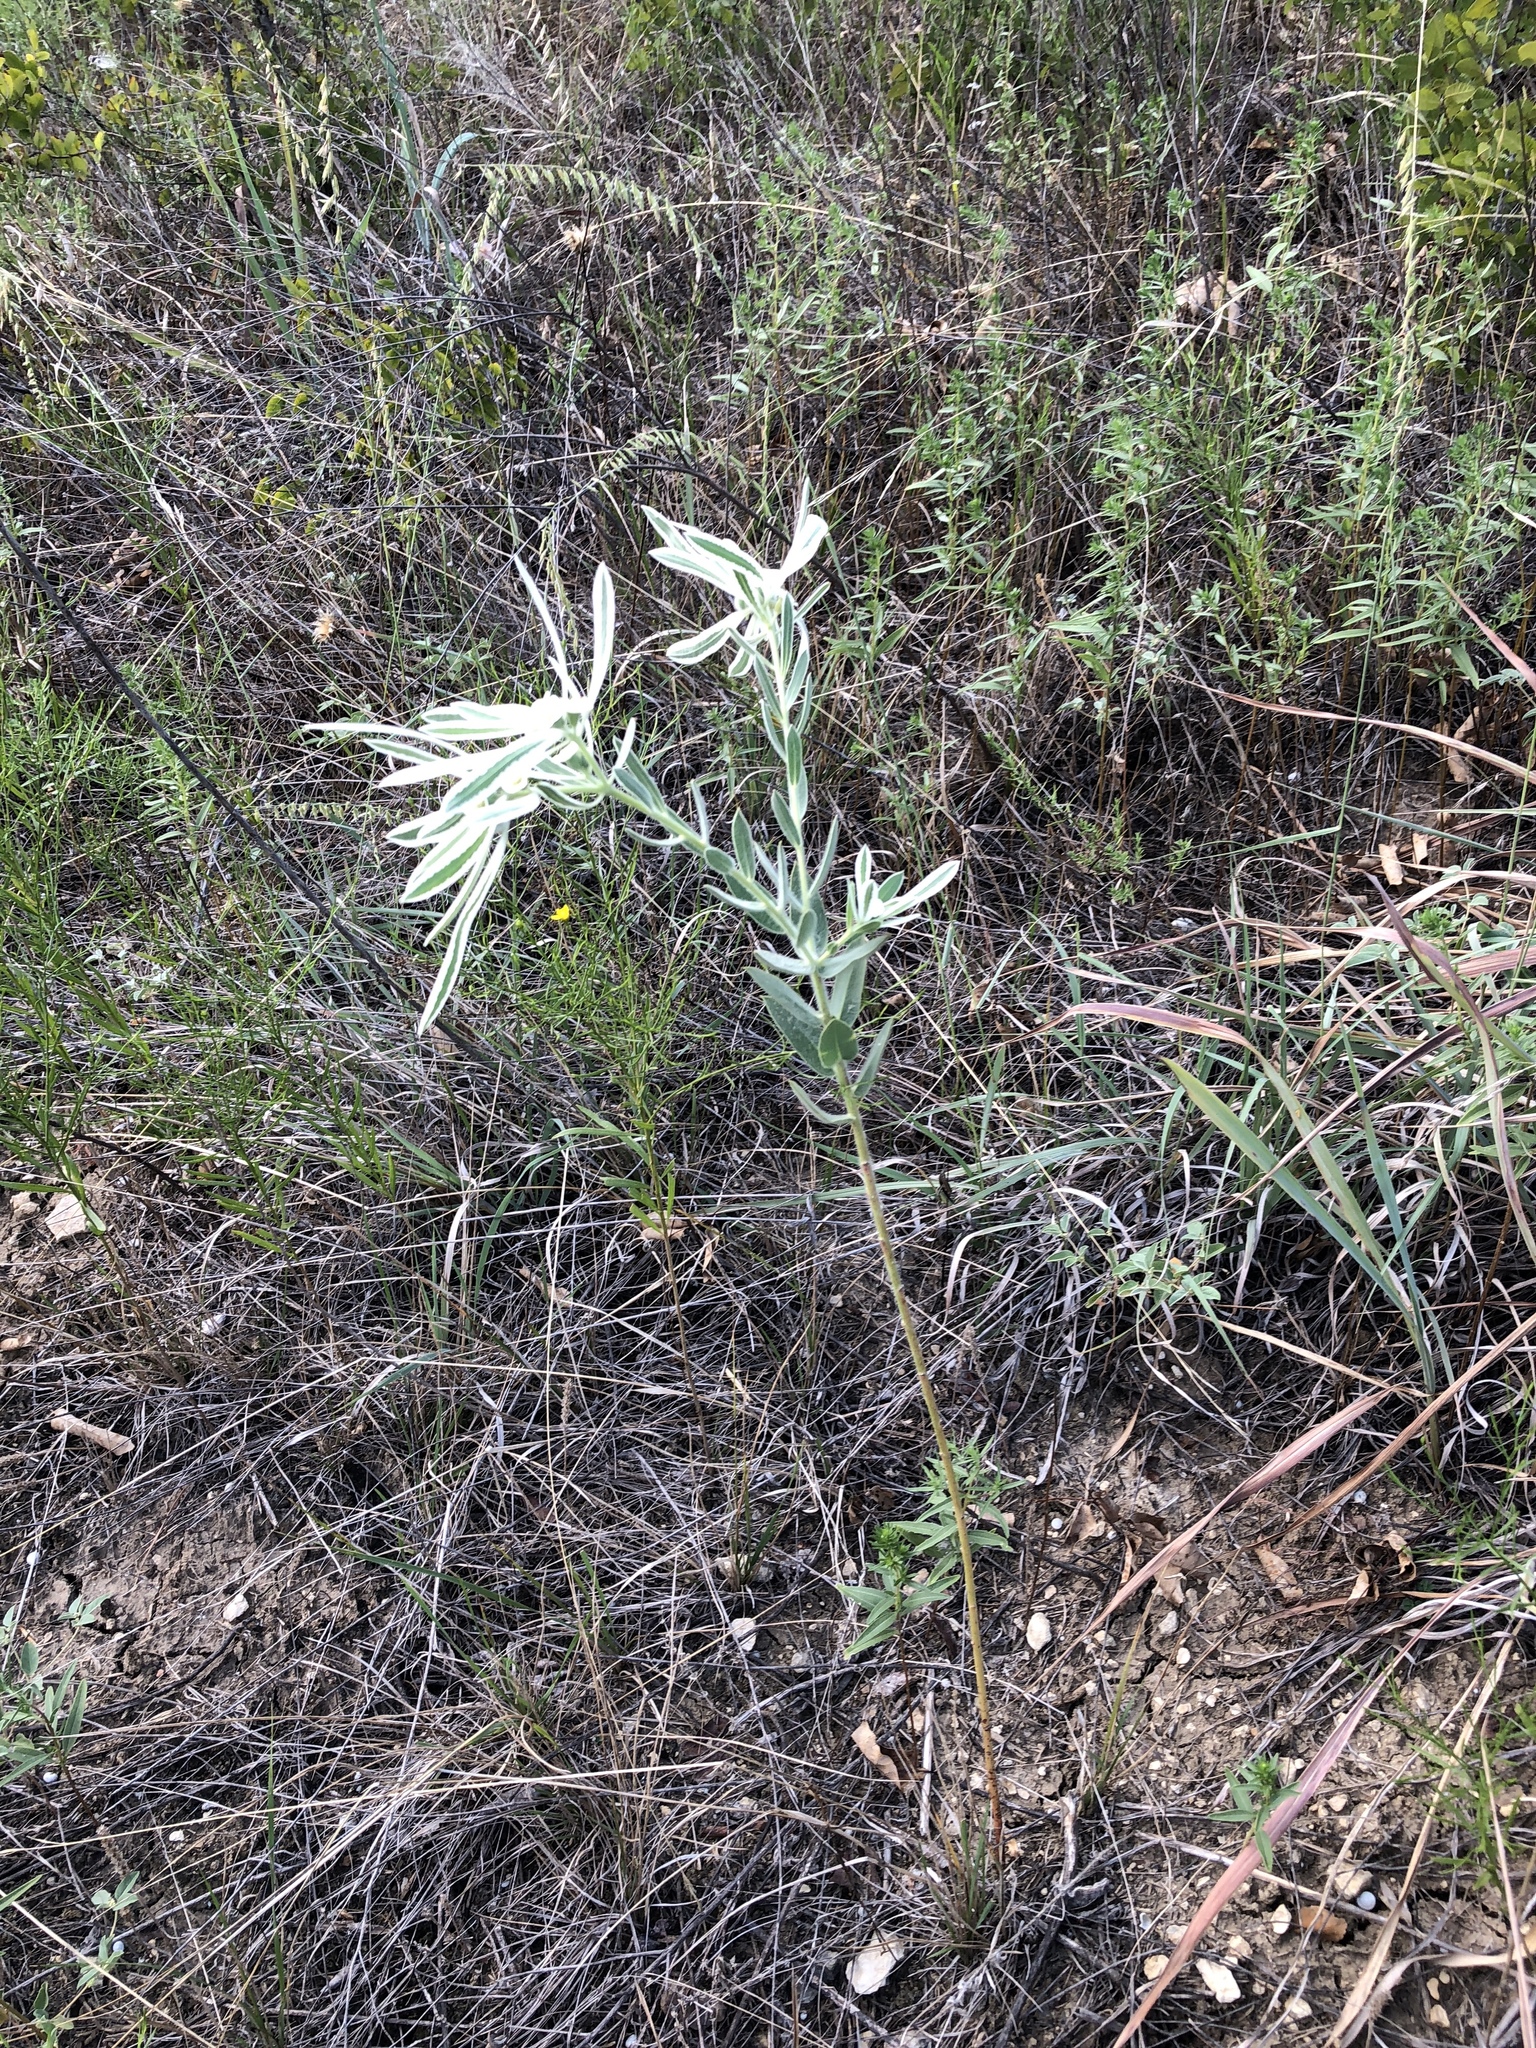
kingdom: Plantae
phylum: Tracheophyta
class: Magnoliopsida
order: Malpighiales
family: Euphorbiaceae
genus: Euphorbia
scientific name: Euphorbia bicolor
